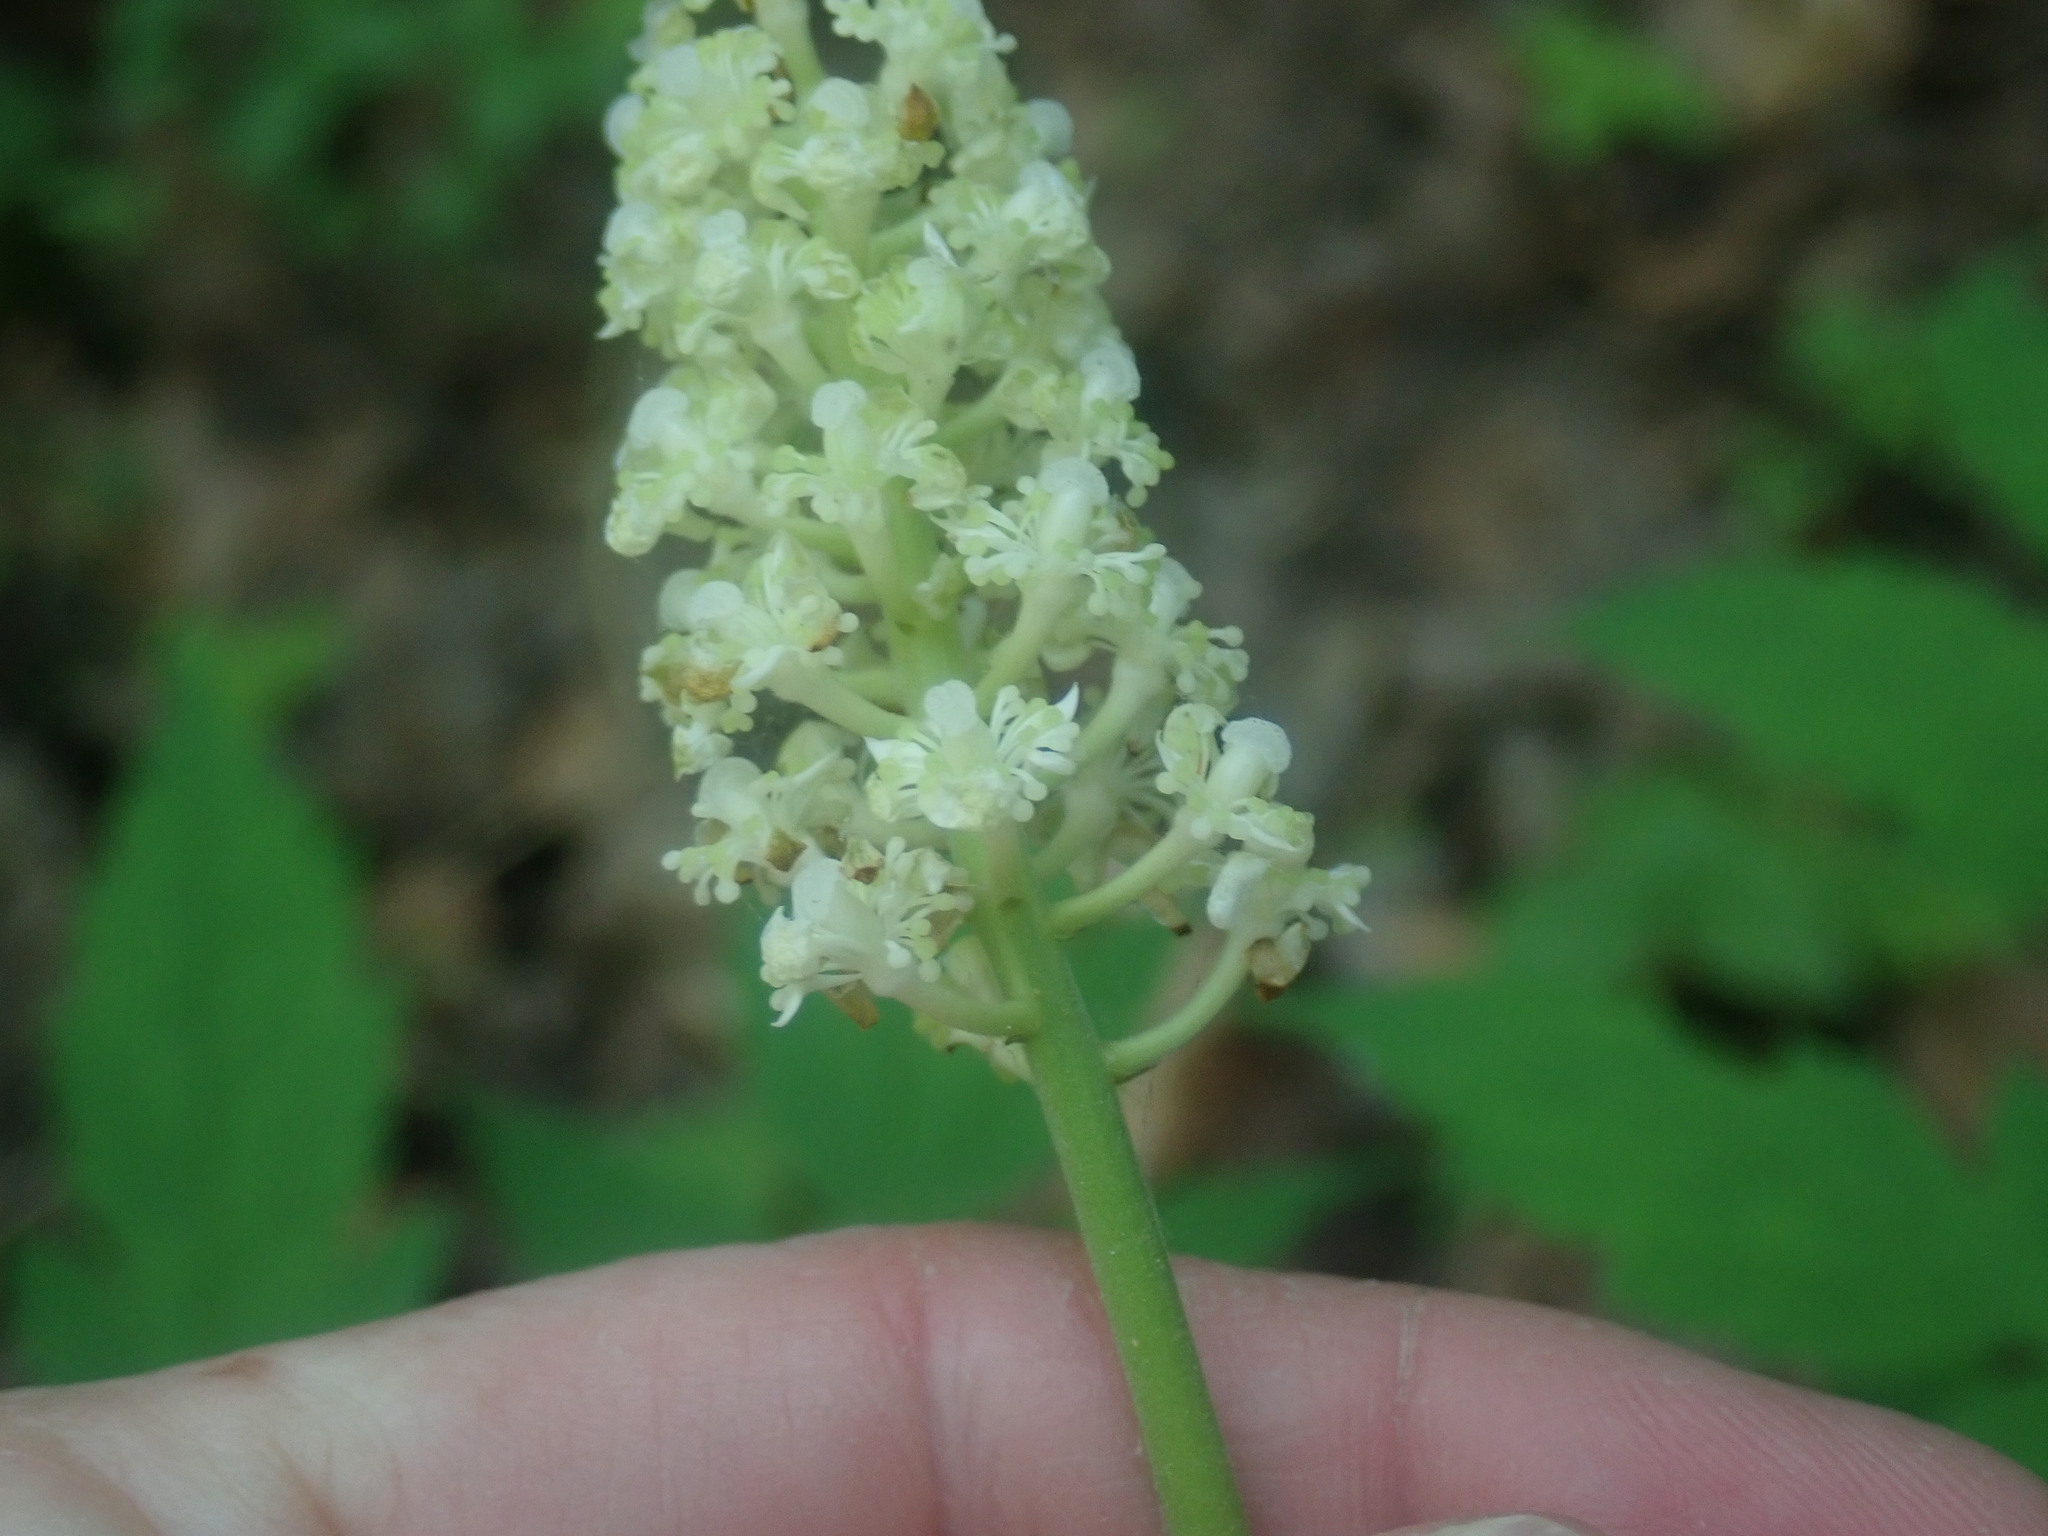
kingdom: Plantae
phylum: Tracheophyta
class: Magnoliopsida
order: Ranunculales
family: Ranunculaceae
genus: Actaea
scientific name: Actaea pachypoda
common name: Doll's-eyes
